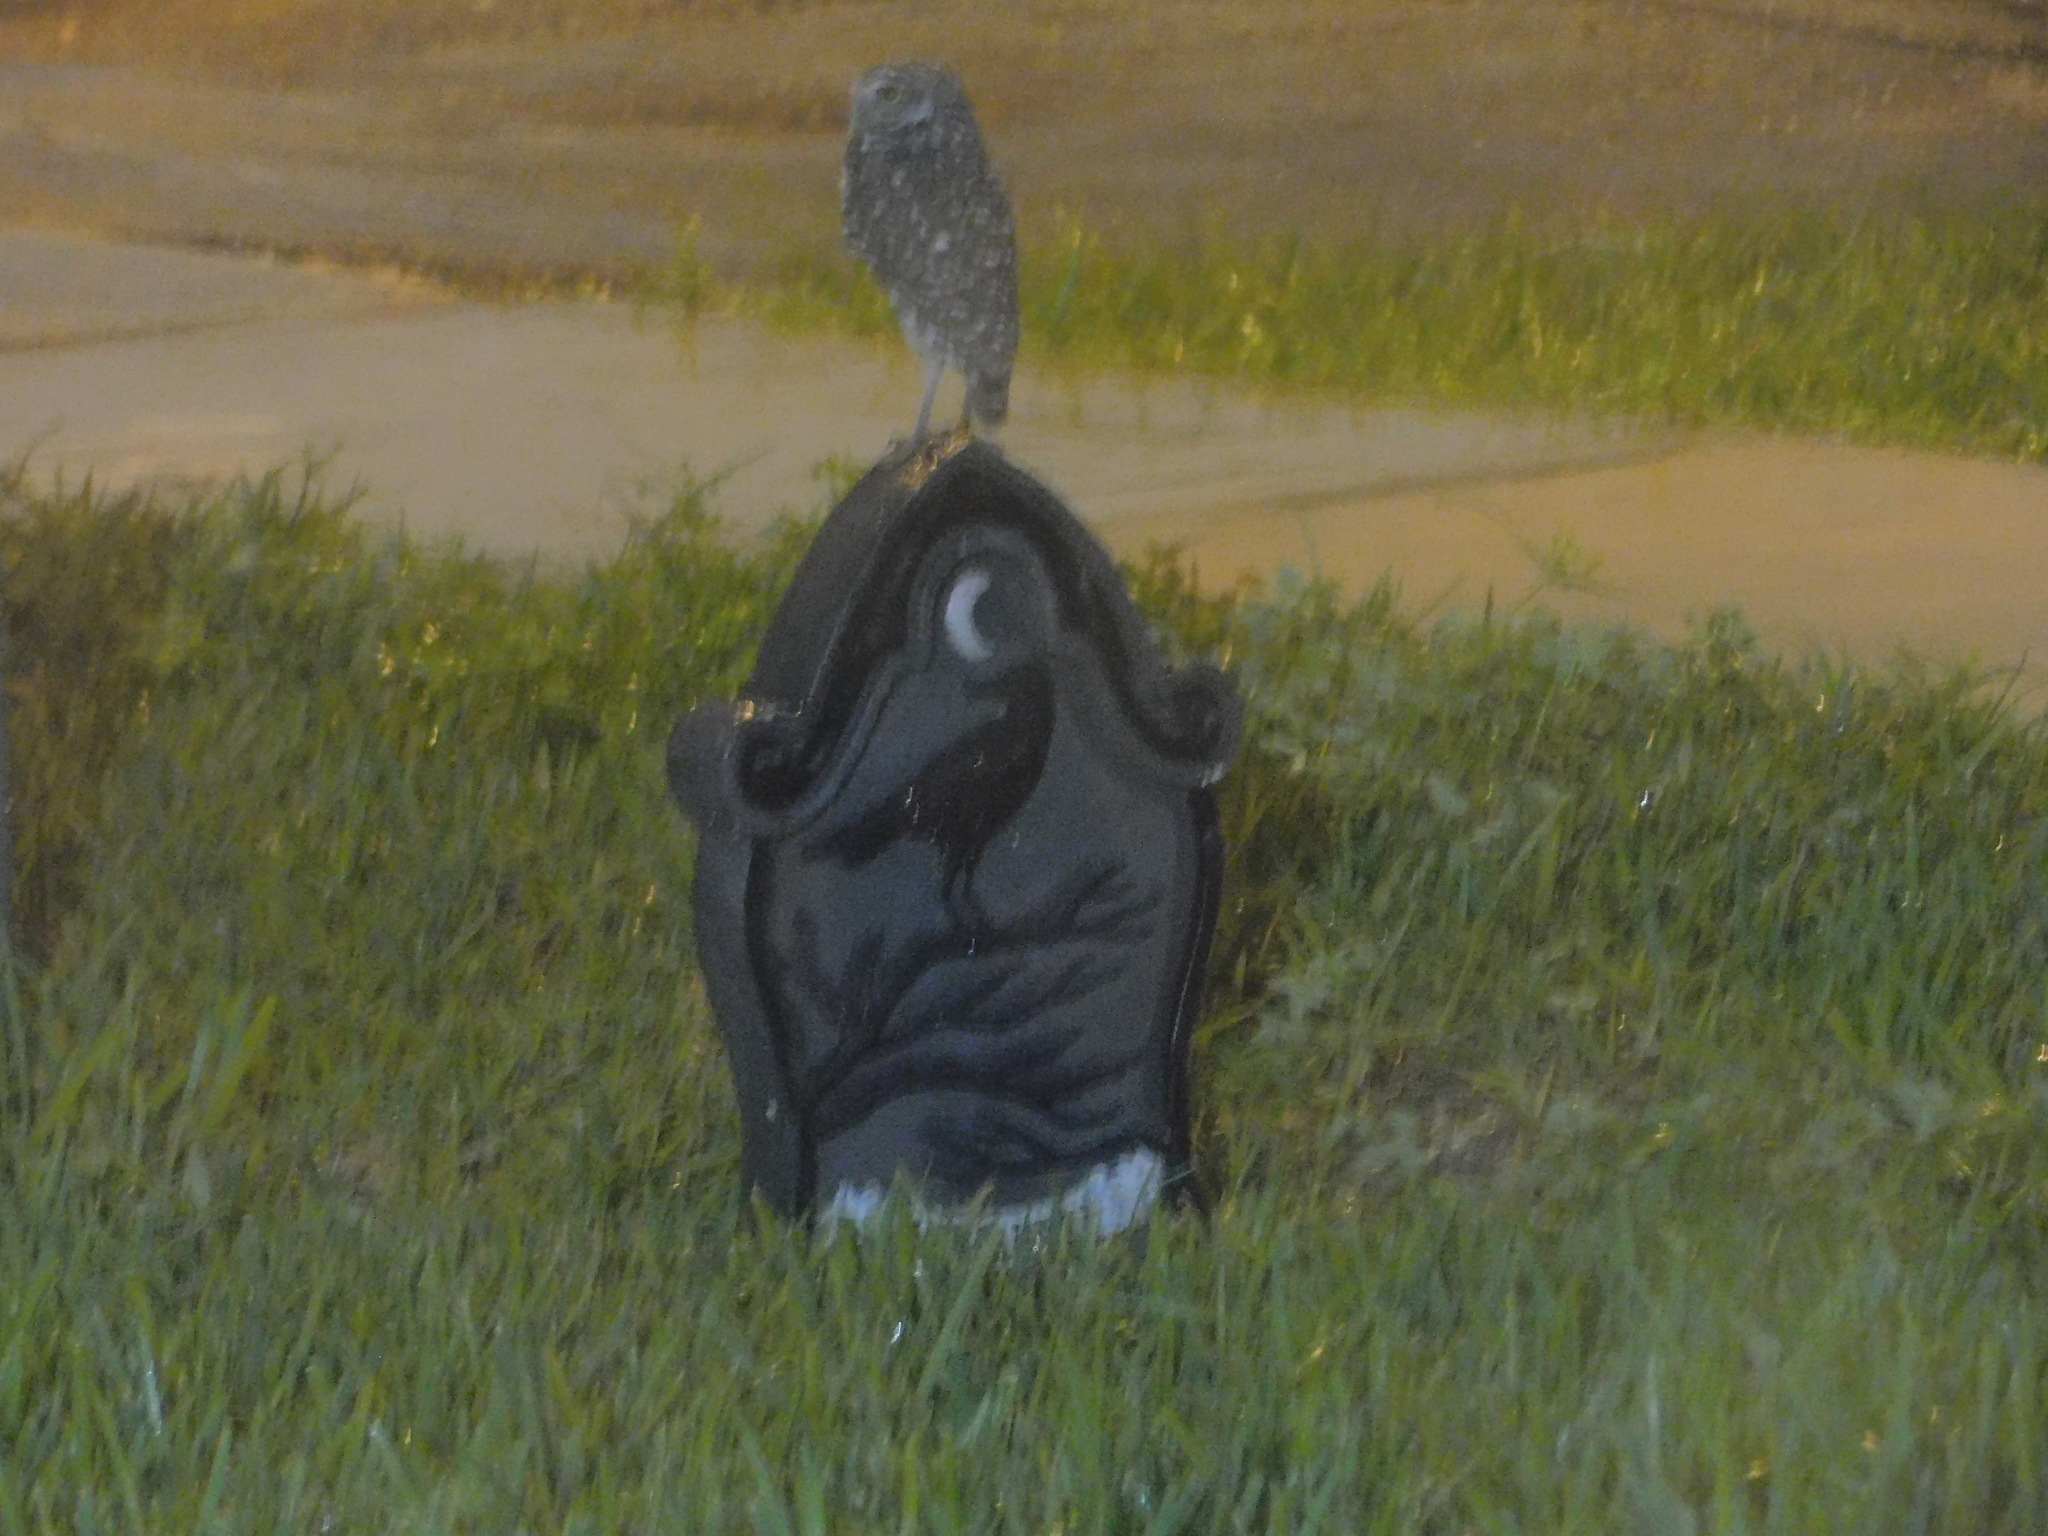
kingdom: Animalia
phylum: Chordata
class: Aves
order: Strigiformes
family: Strigidae
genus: Athene
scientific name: Athene cunicularia
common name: Burrowing owl
